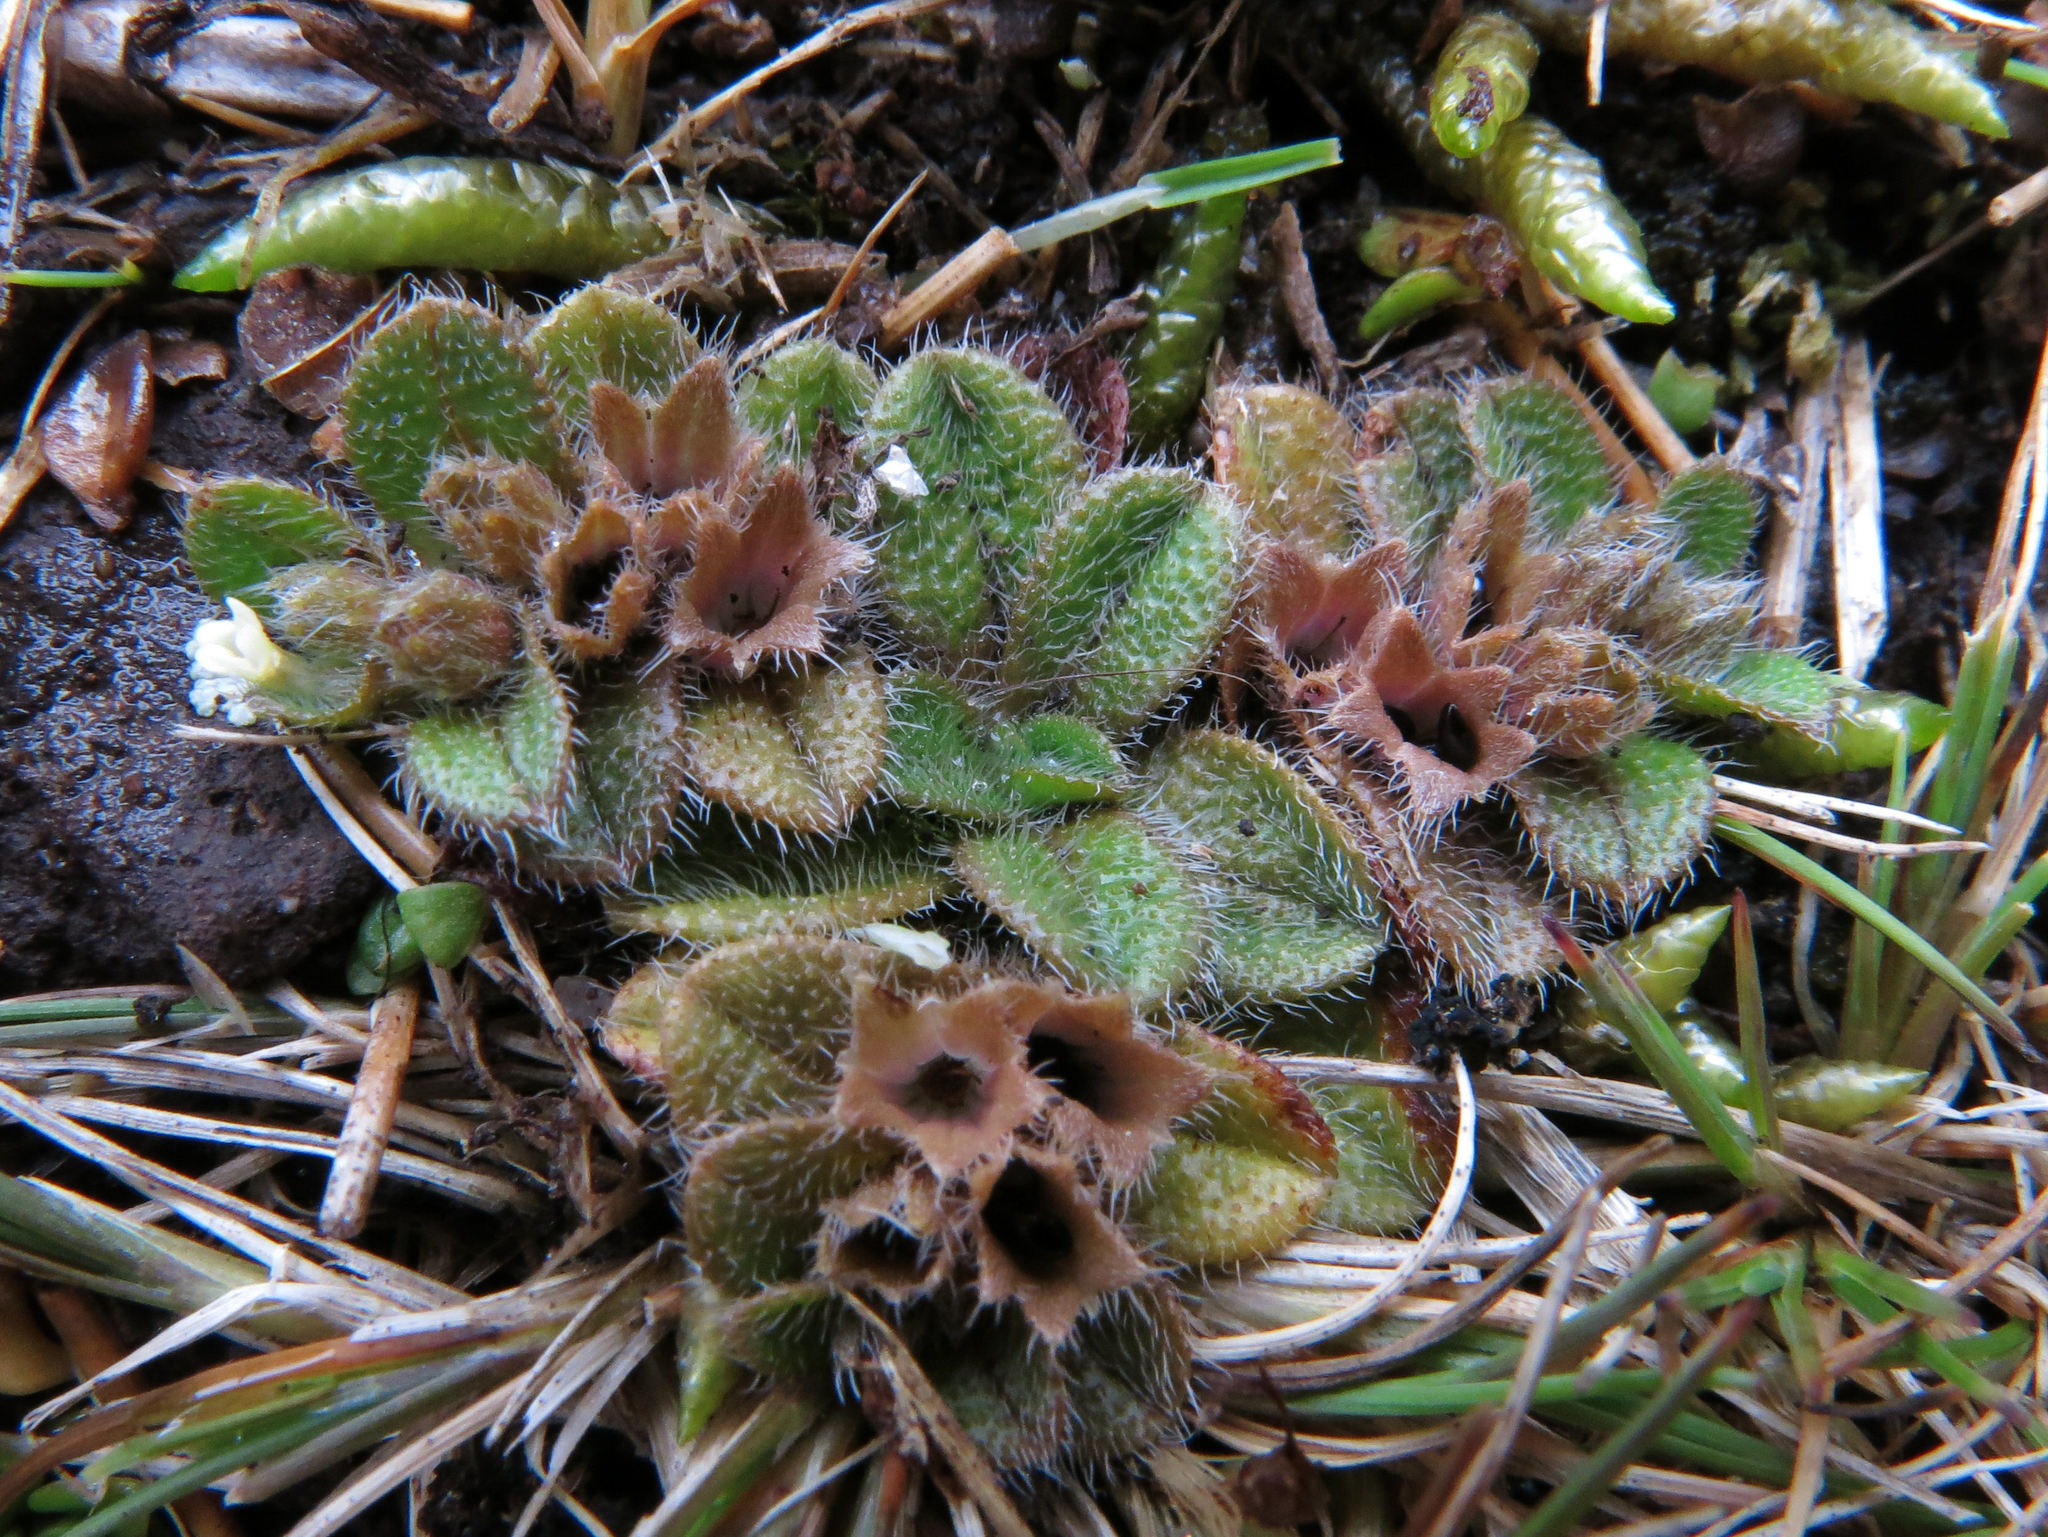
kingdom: Plantae
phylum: Tracheophyta
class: Magnoliopsida
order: Boraginales
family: Boraginaceae
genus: Myosotis
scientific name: Myosotis antarctica
